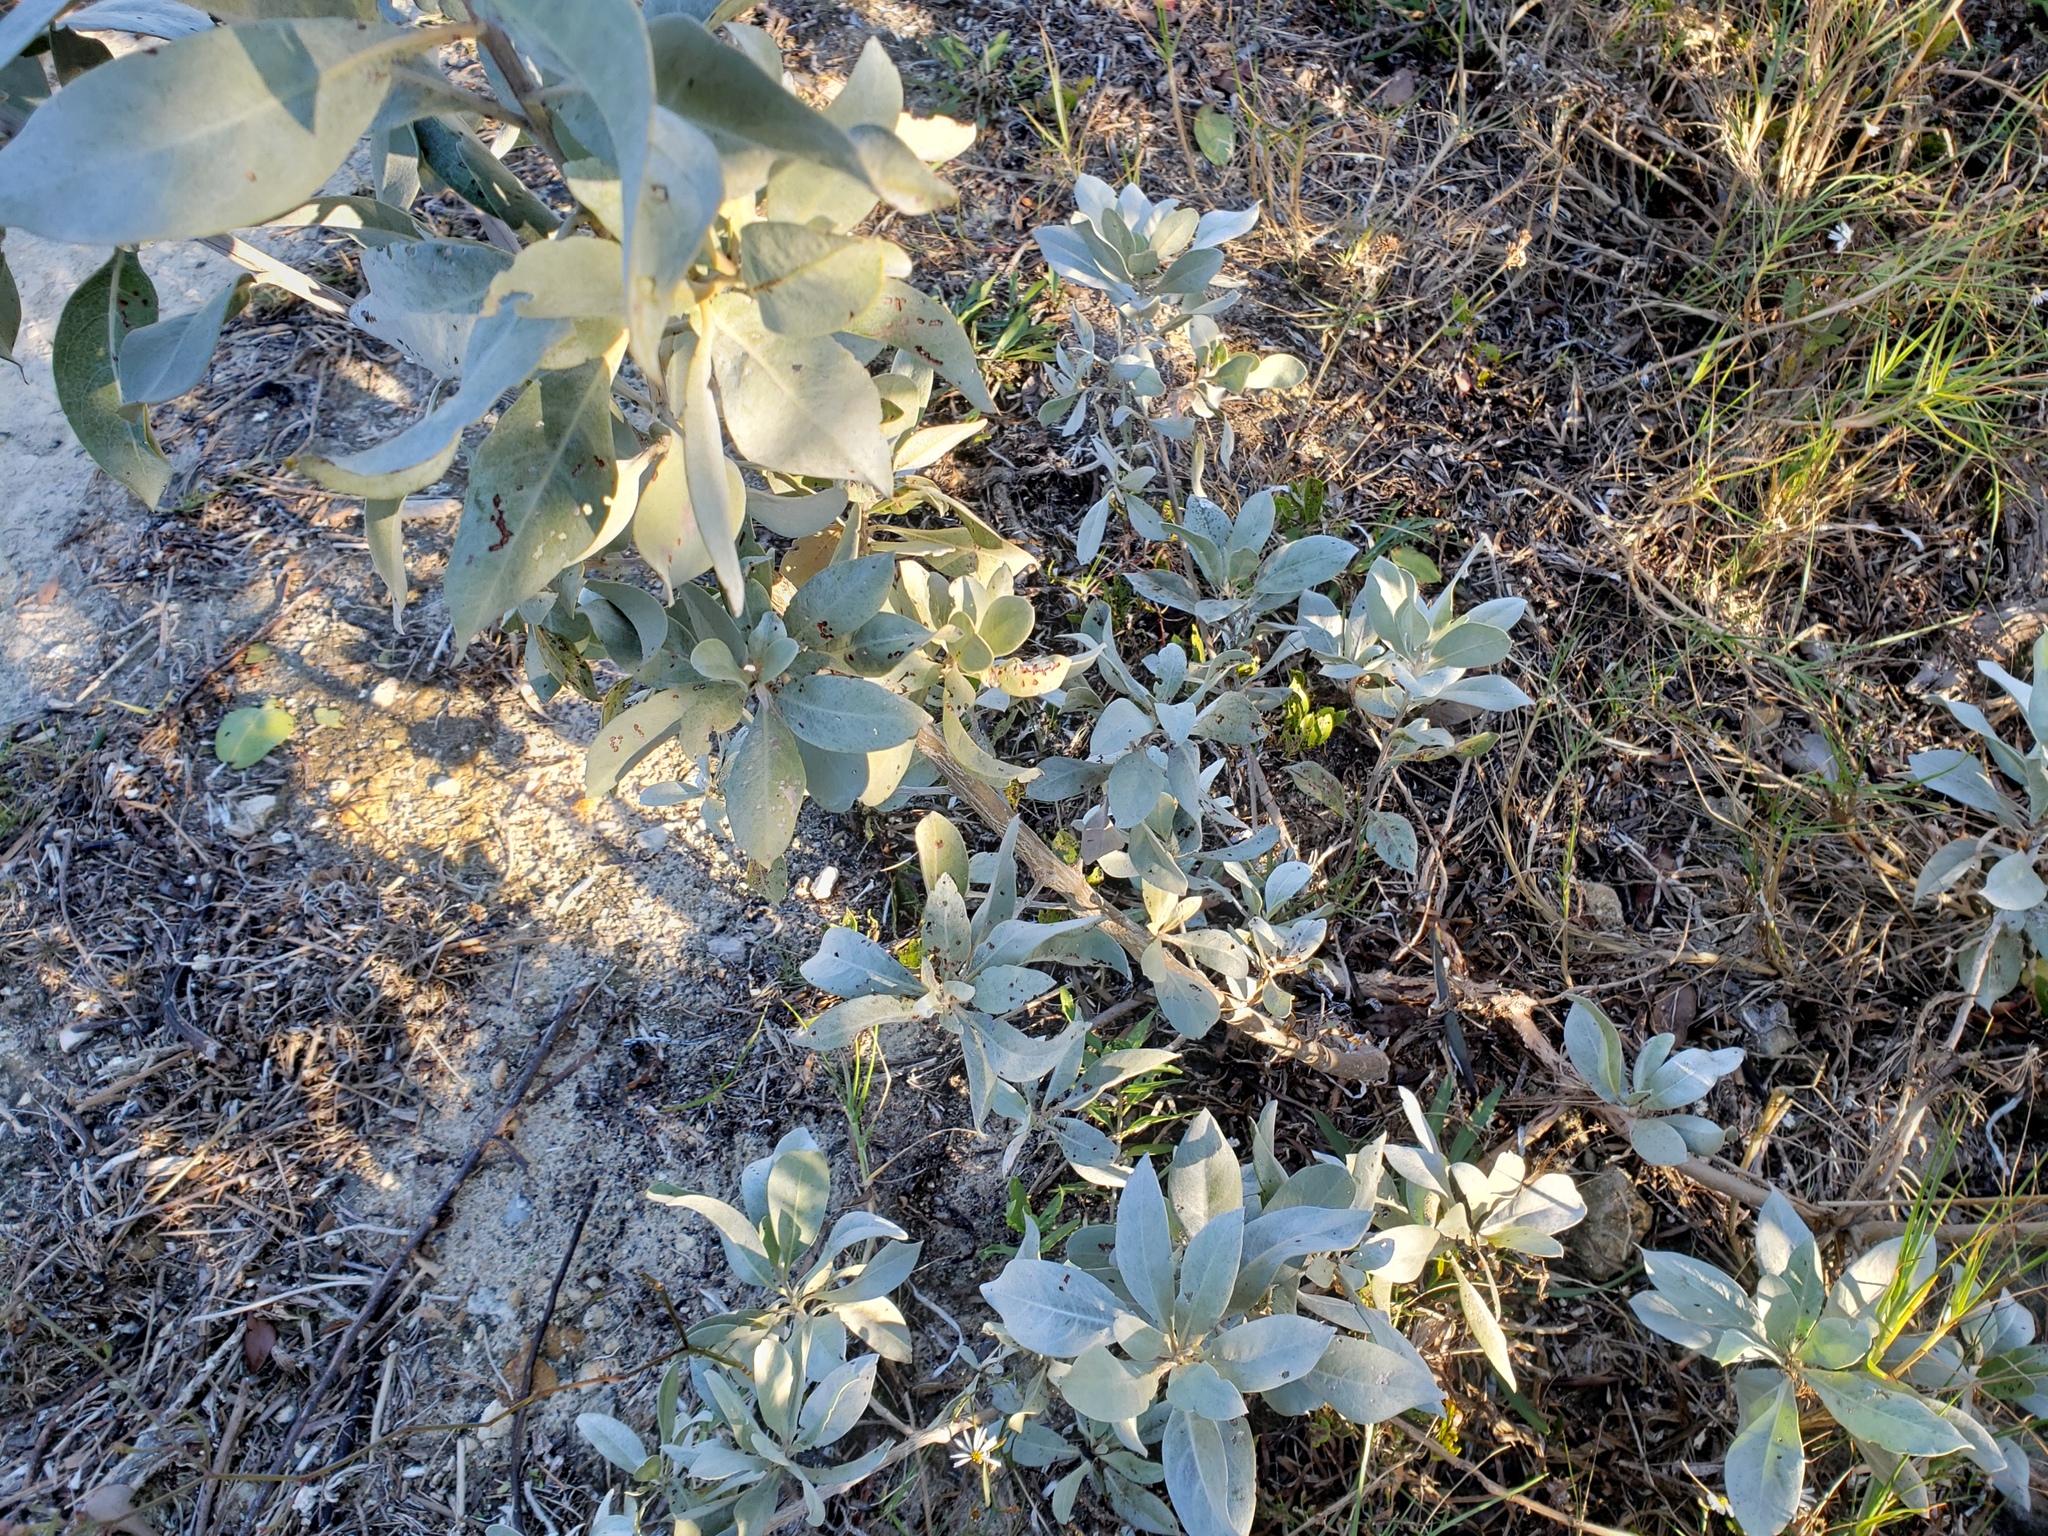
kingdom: Plantae
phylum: Tracheophyta
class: Magnoliopsida
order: Myrtales
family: Combretaceae
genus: Conocarpus
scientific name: Conocarpus erectus
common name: Button mangrove
